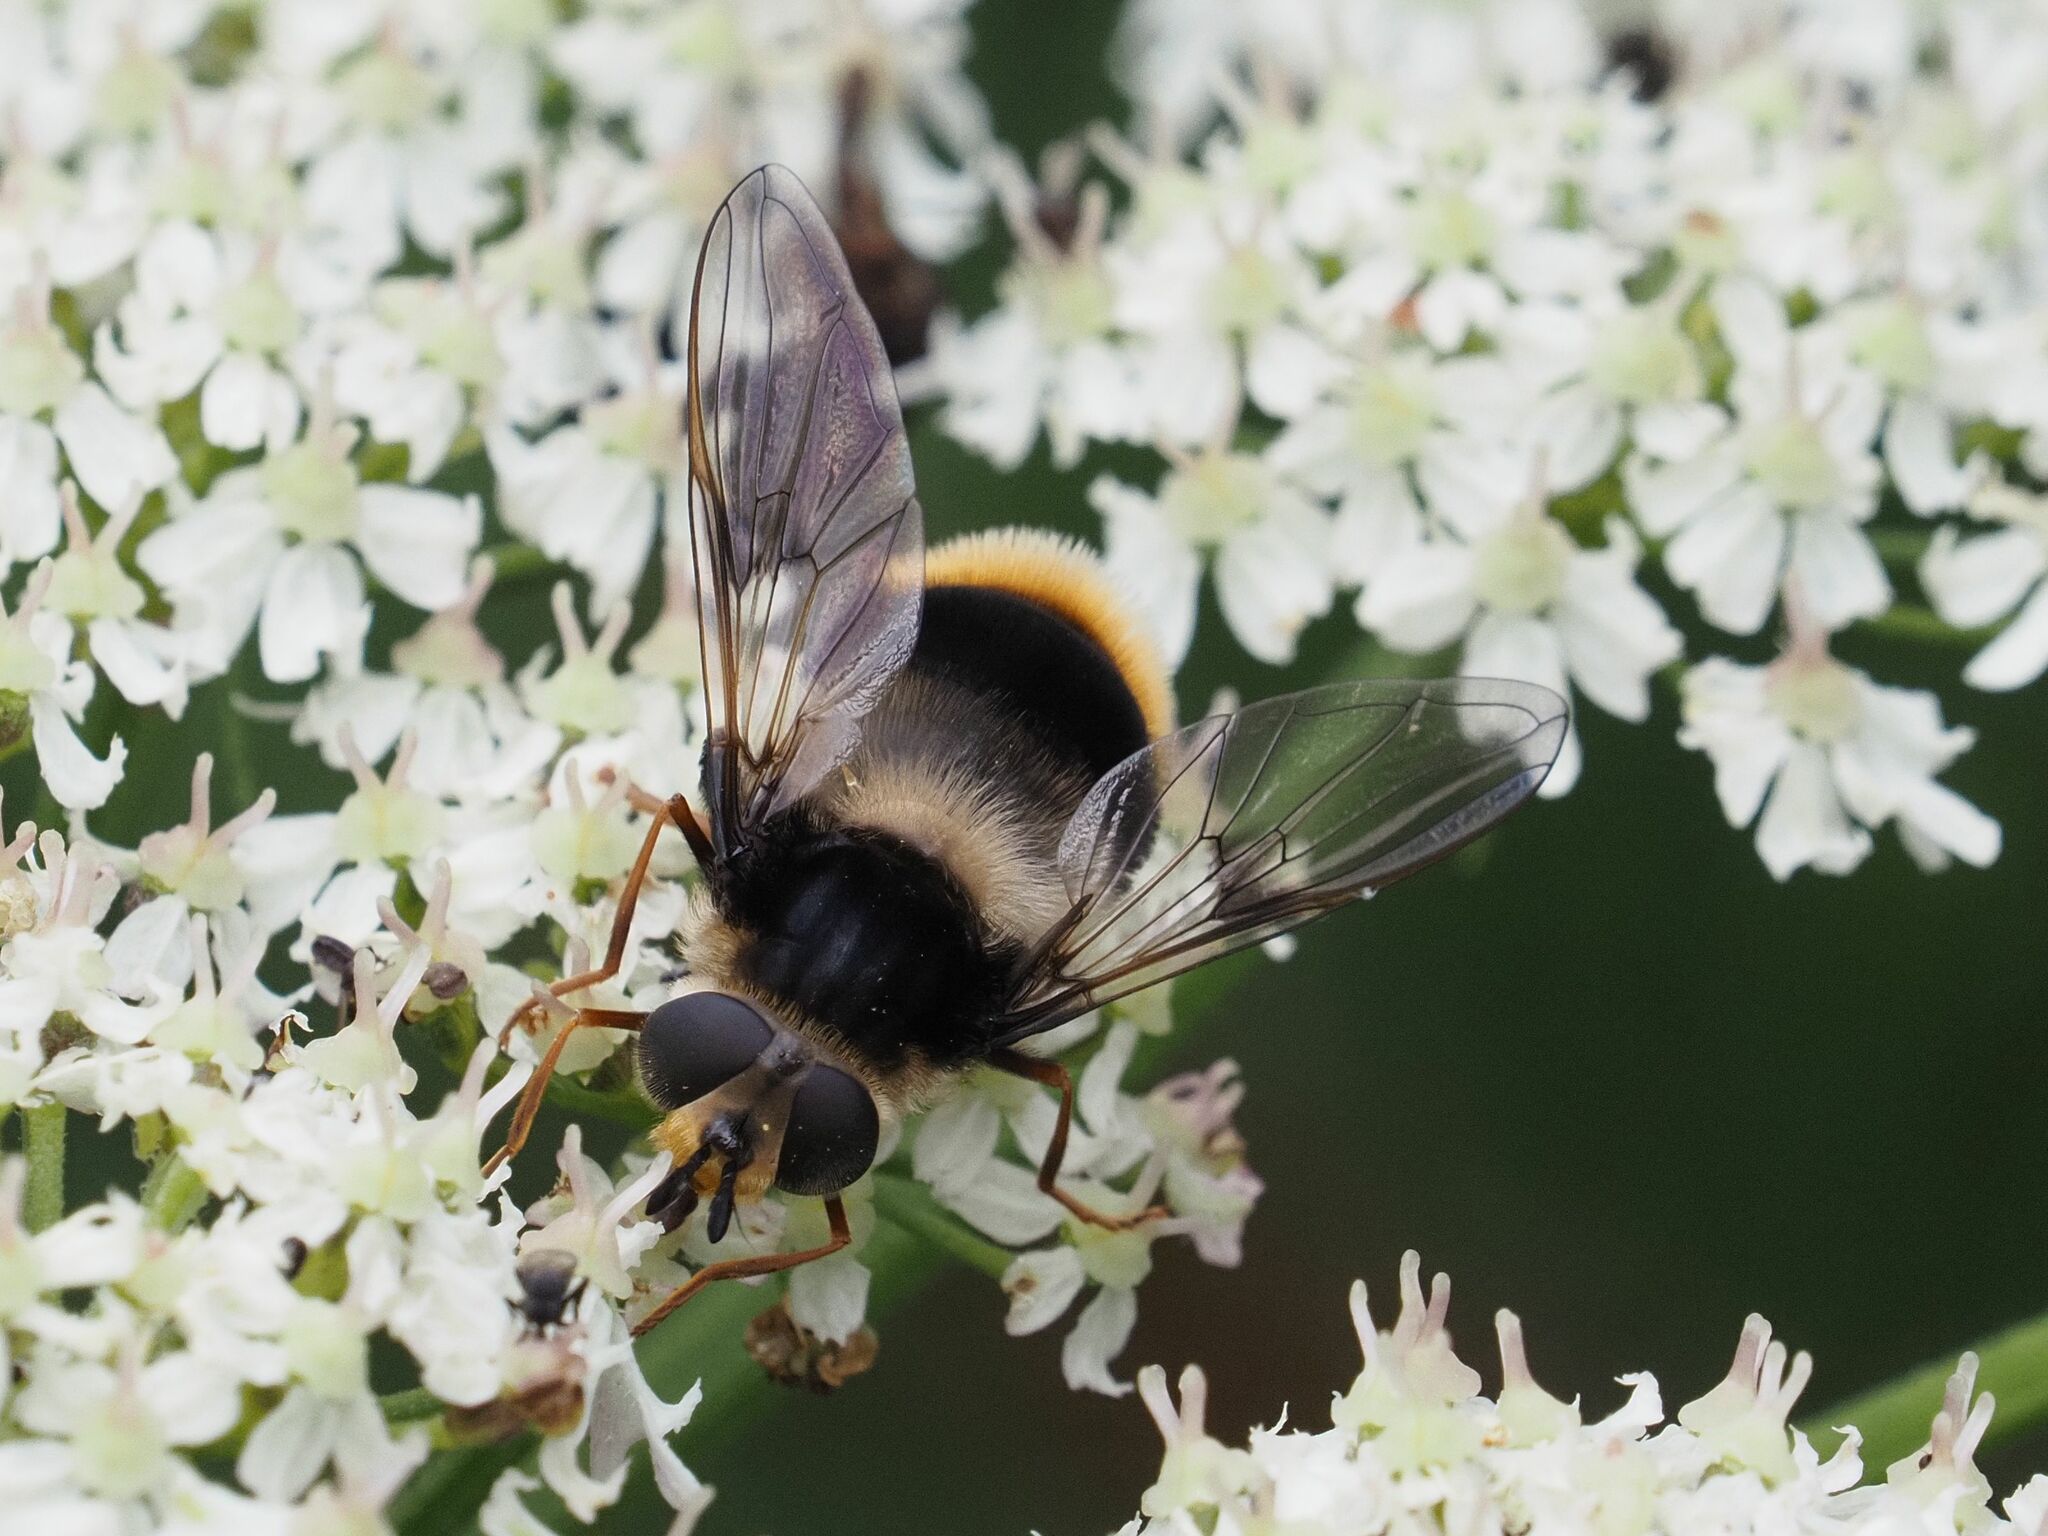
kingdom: Animalia
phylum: Arthropoda
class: Insecta
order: Diptera
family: Syrphidae
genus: Eriozona
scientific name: Eriozona syrphoides
